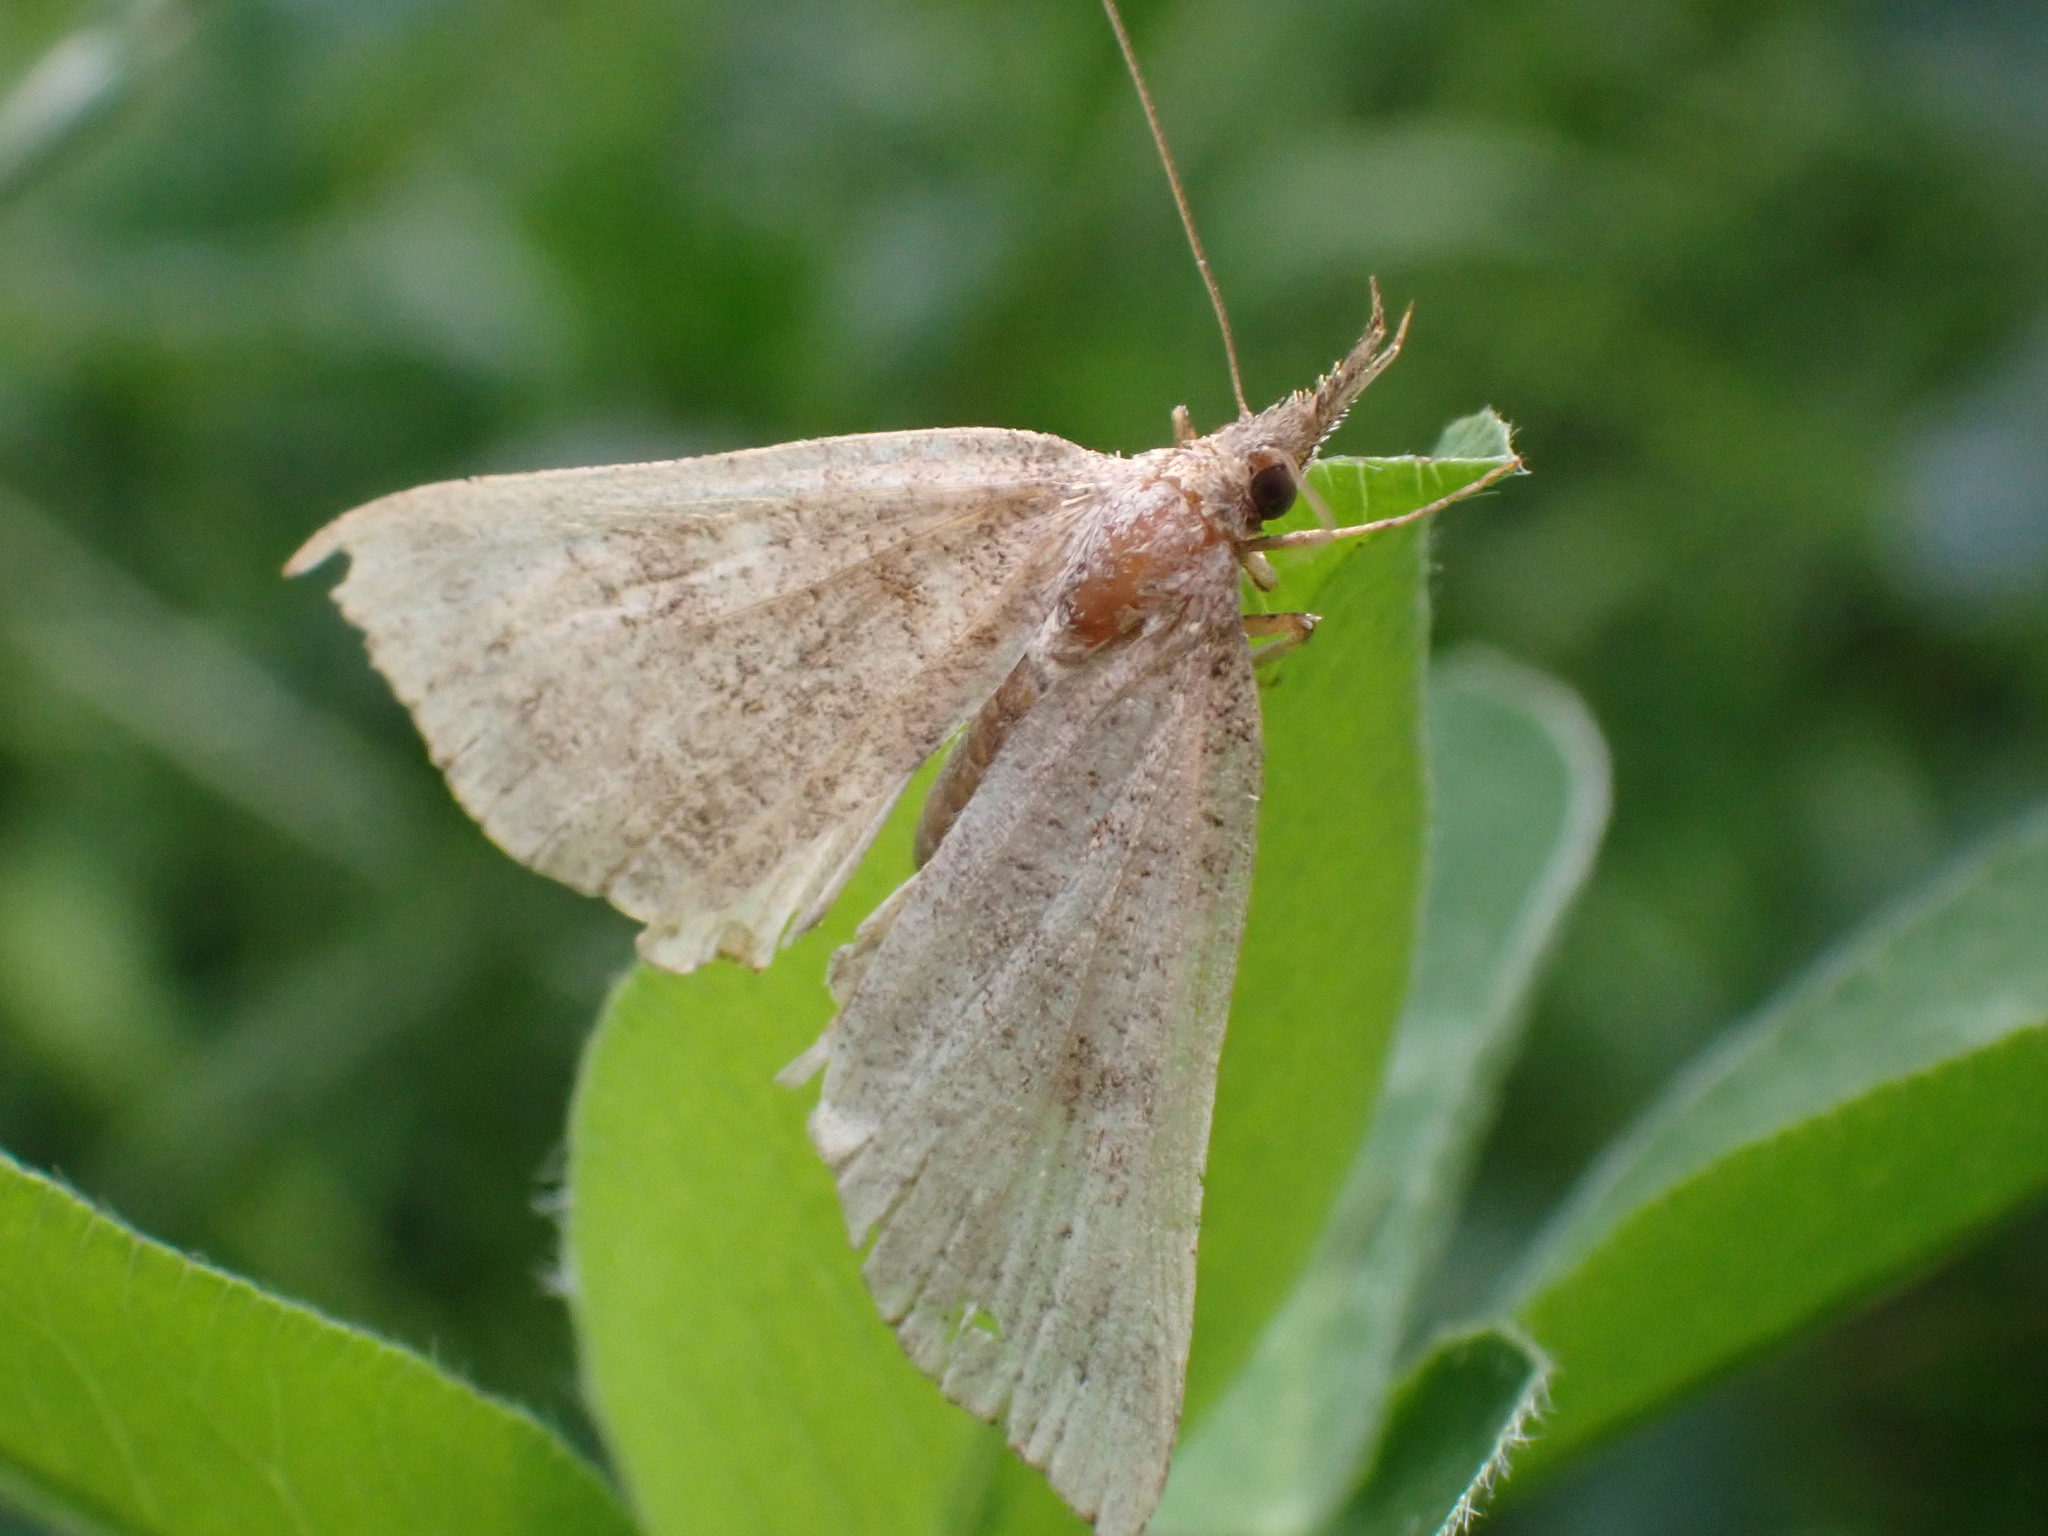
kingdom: Animalia
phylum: Arthropoda
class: Insecta
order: Lepidoptera
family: Erebidae
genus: Hypena
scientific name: Hypena proboscidalis
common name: Snout
